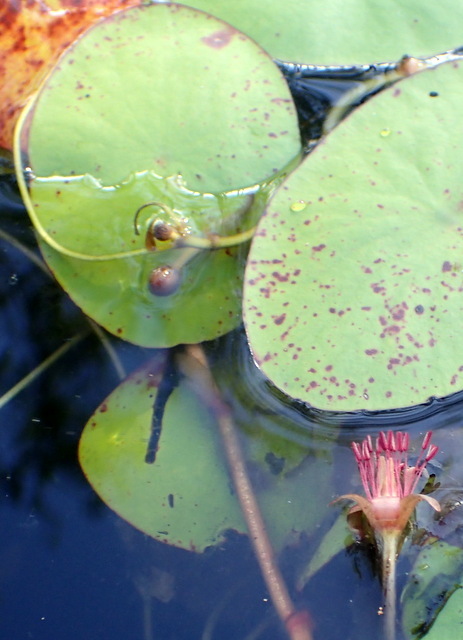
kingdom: Plantae
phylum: Tracheophyta
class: Magnoliopsida
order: Nymphaeales
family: Cabombaceae
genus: Brasenia
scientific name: Brasenia schreberi
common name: Water-shield
